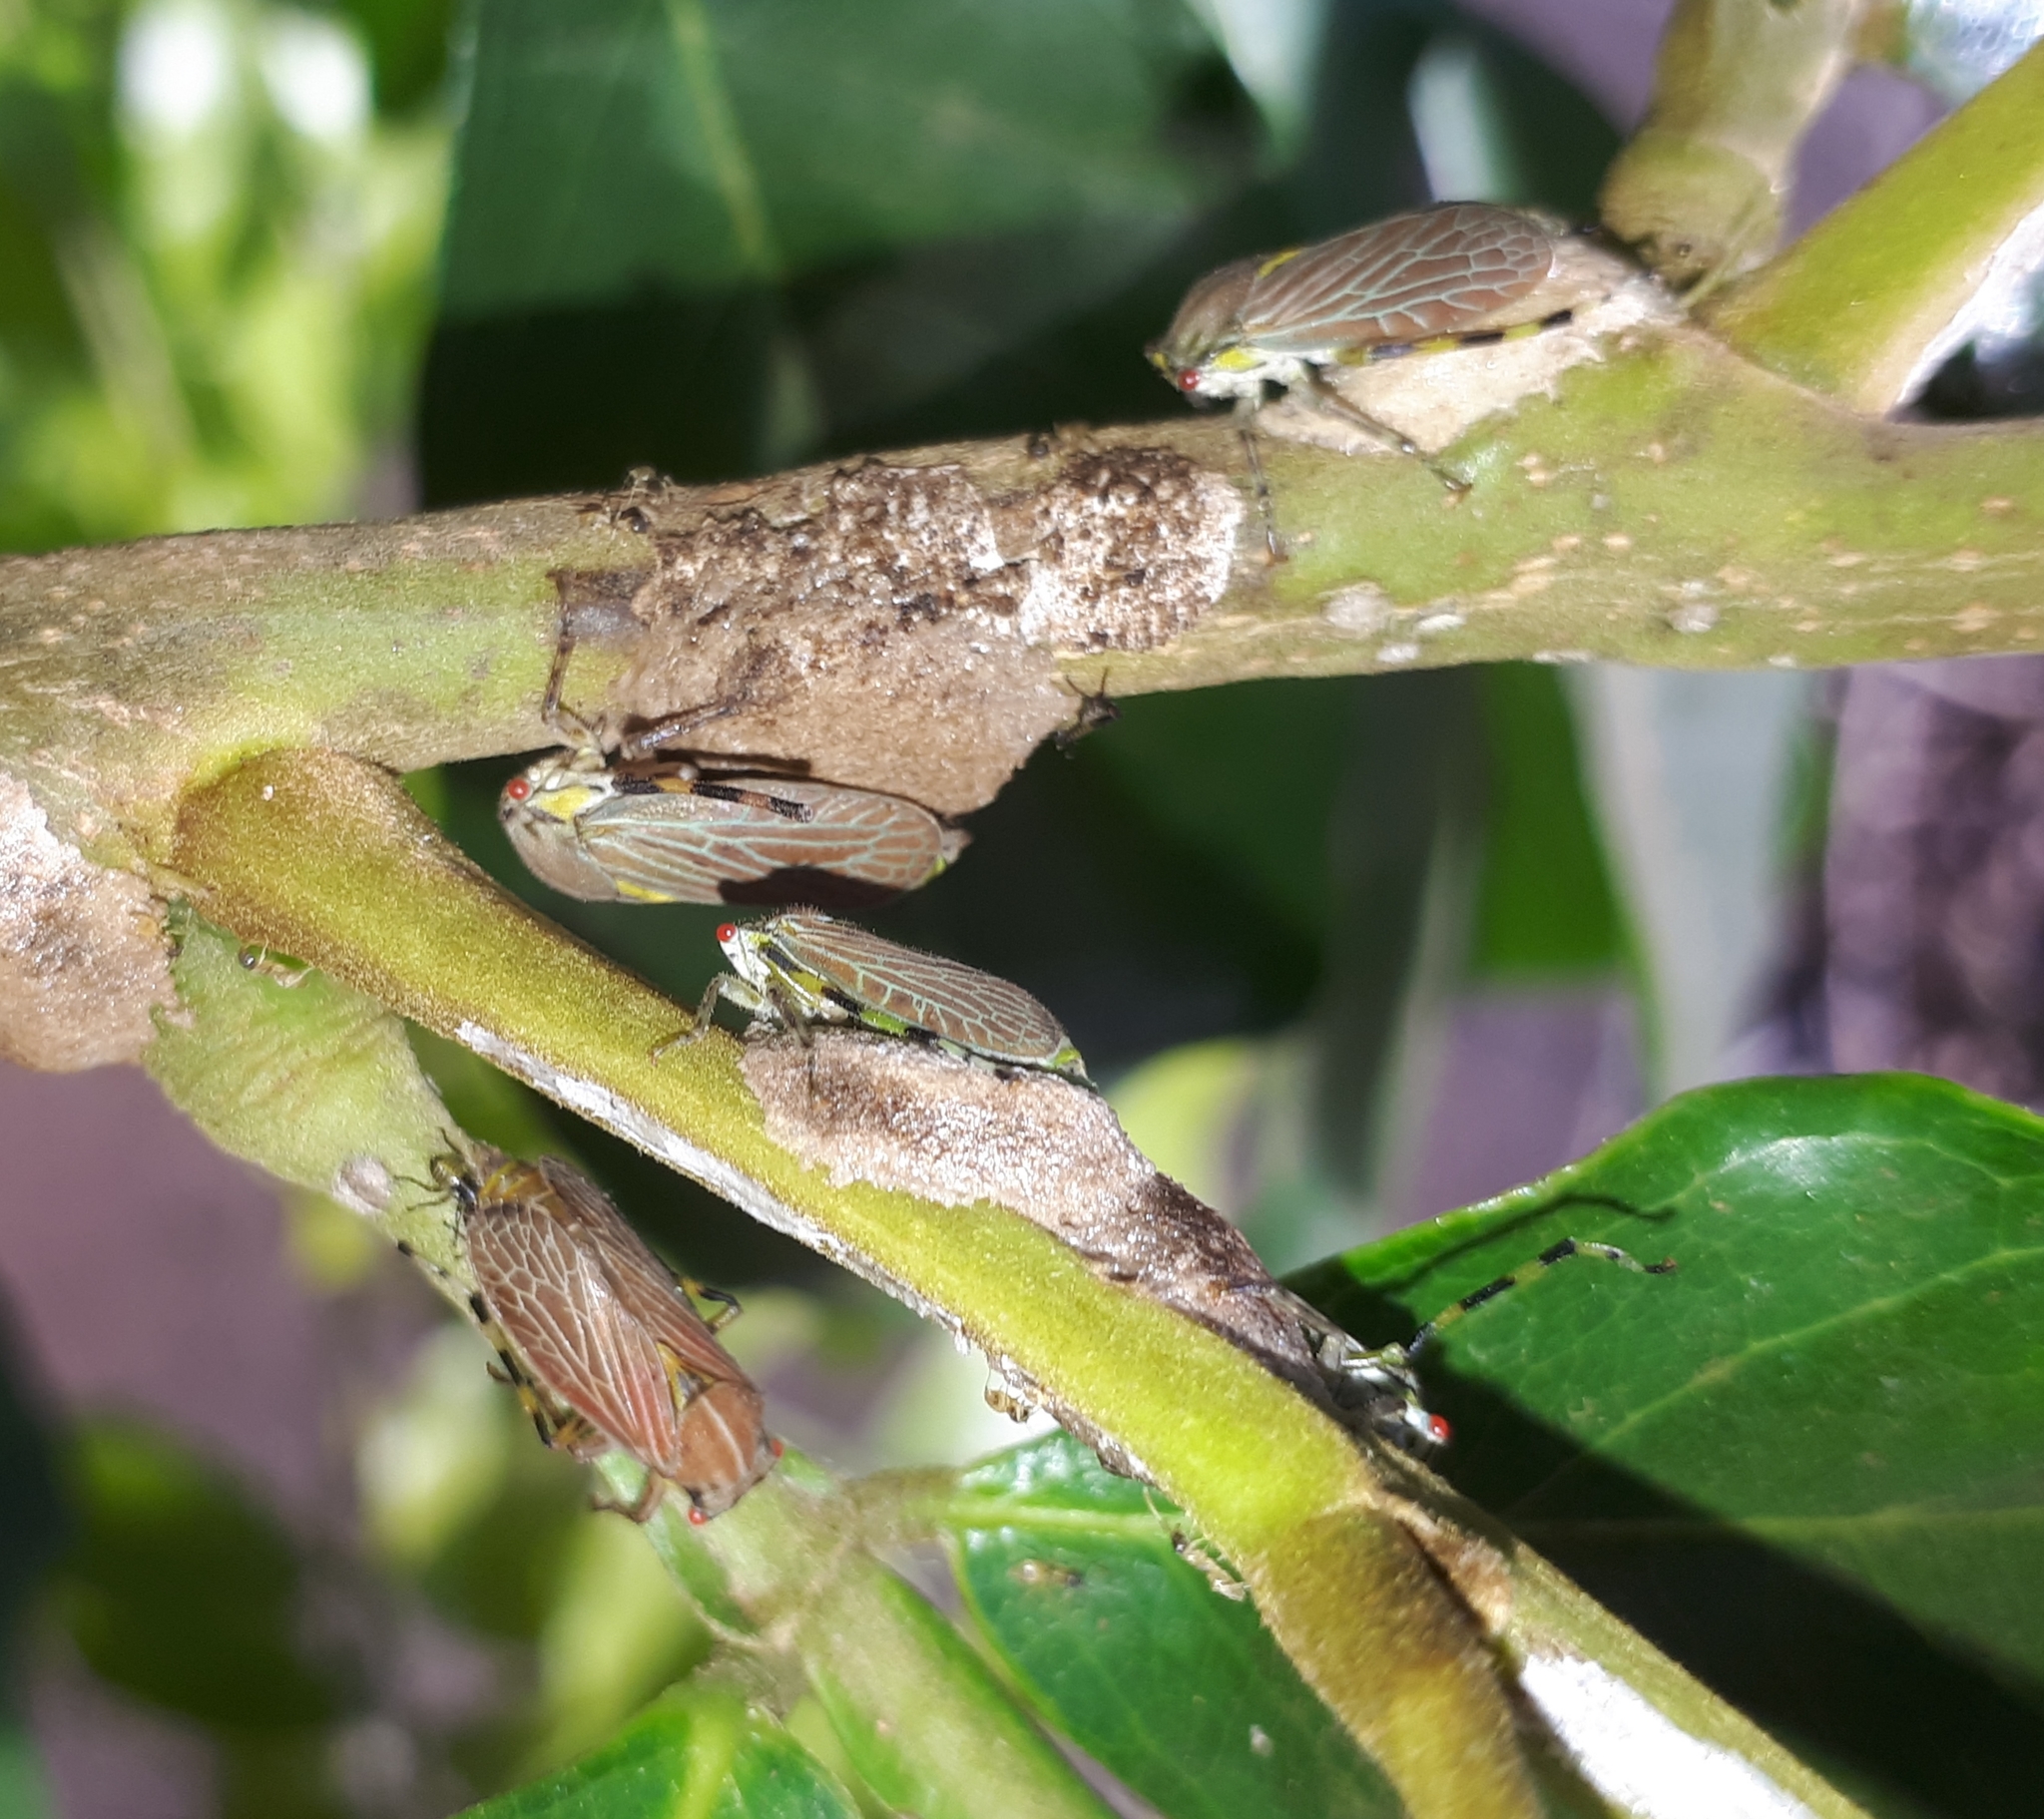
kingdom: Animalia
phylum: Arthropoda
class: Insecta
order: Hemiptera
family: Aetalionidae
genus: Aetalion
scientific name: Aetalion reticulatum
